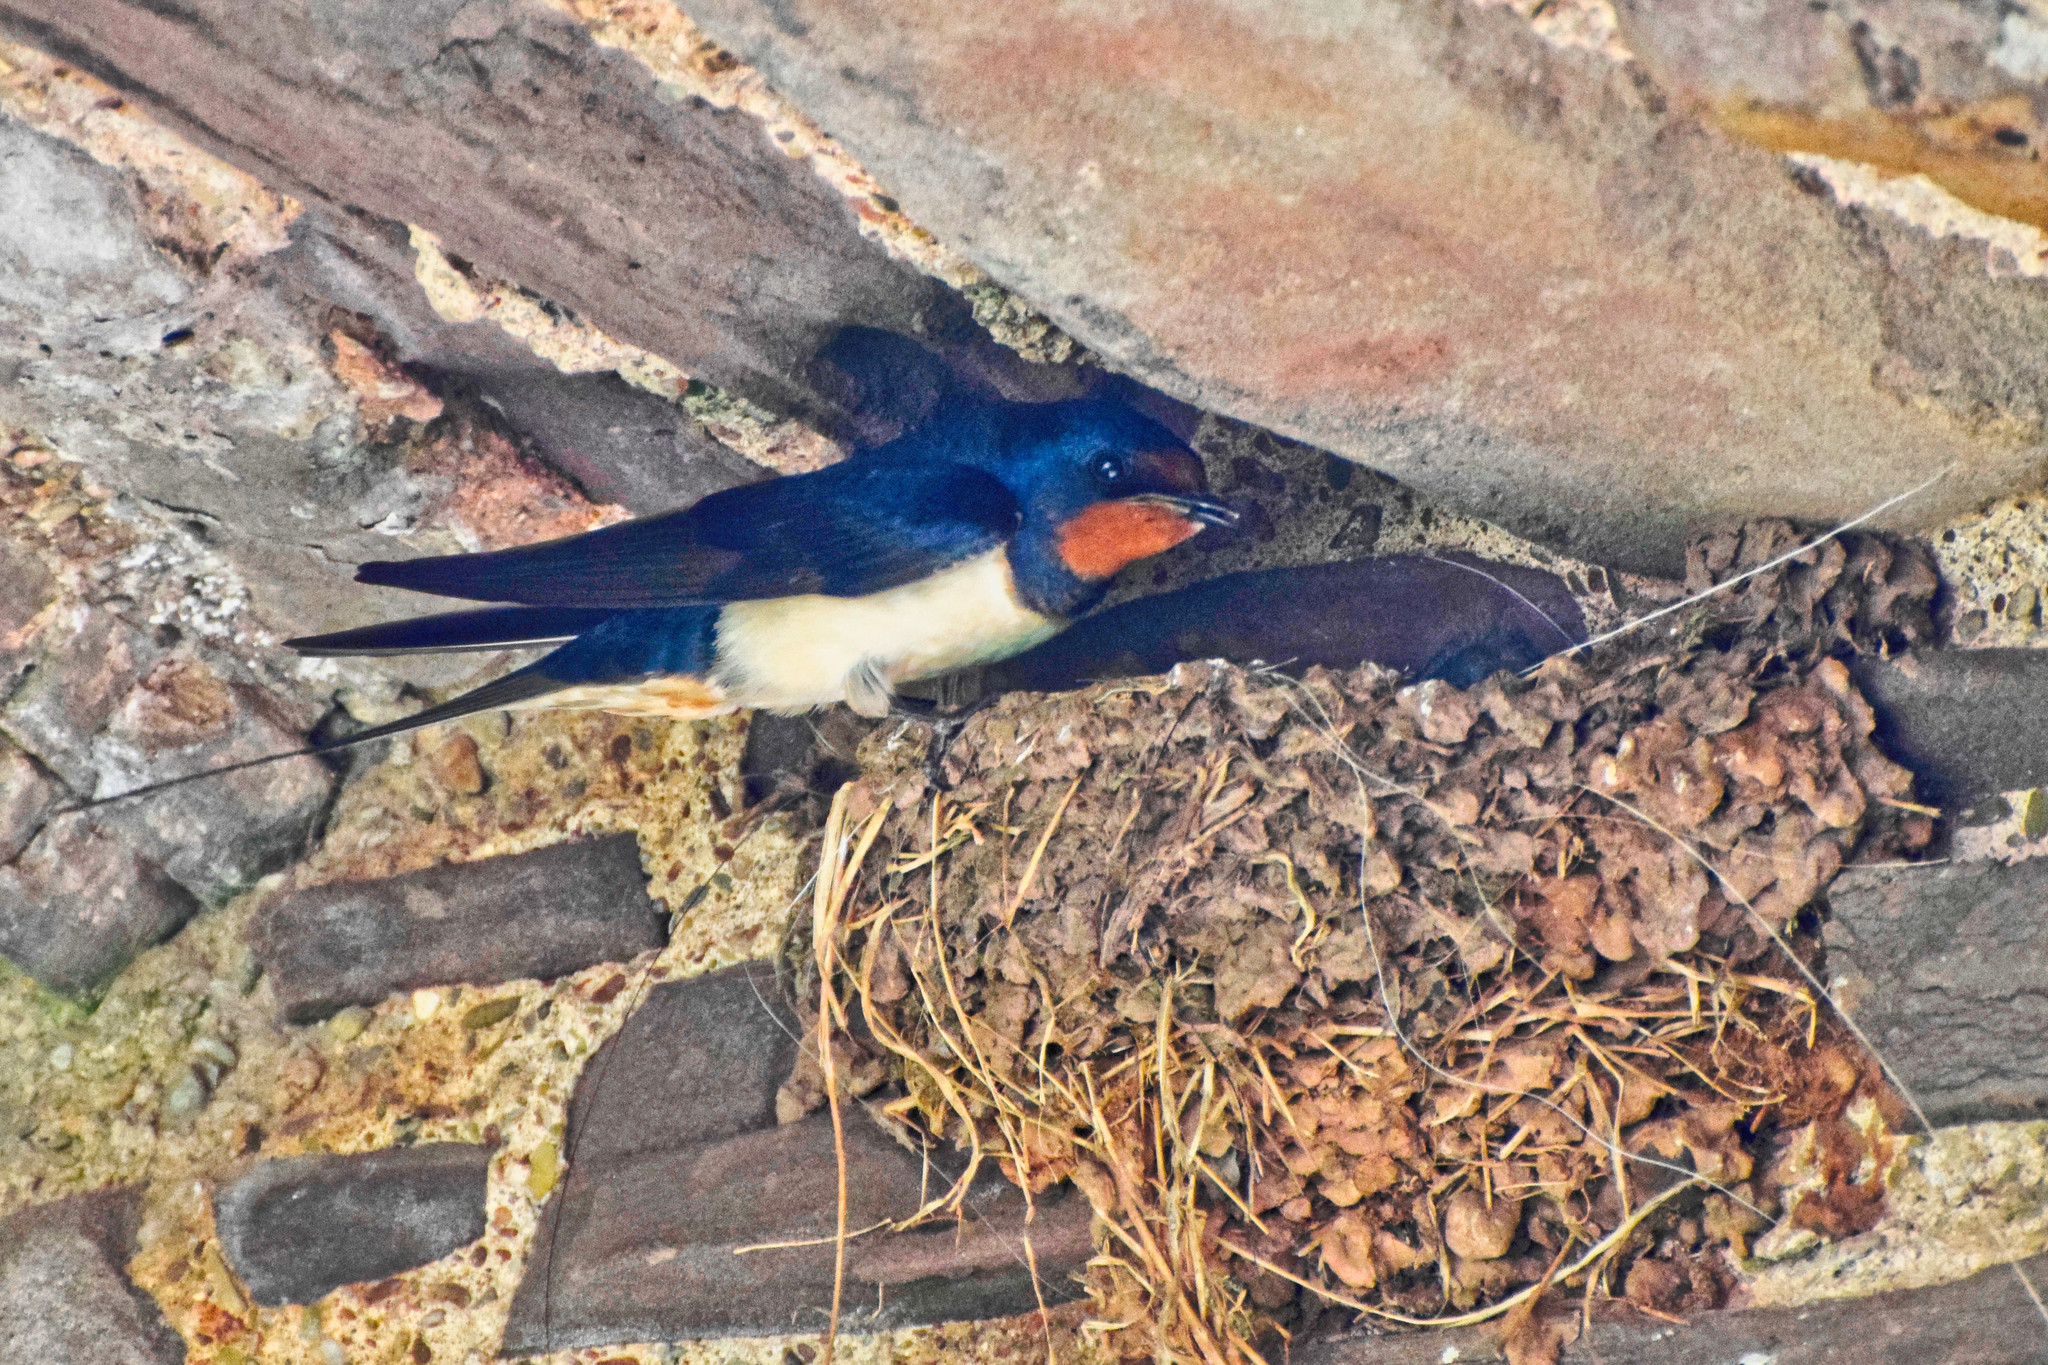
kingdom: Animalia
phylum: Chordata
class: Aves
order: Passeriformes
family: Hirundinidae
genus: Hirundo
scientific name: Hirundo rustica
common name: Barn swallow
